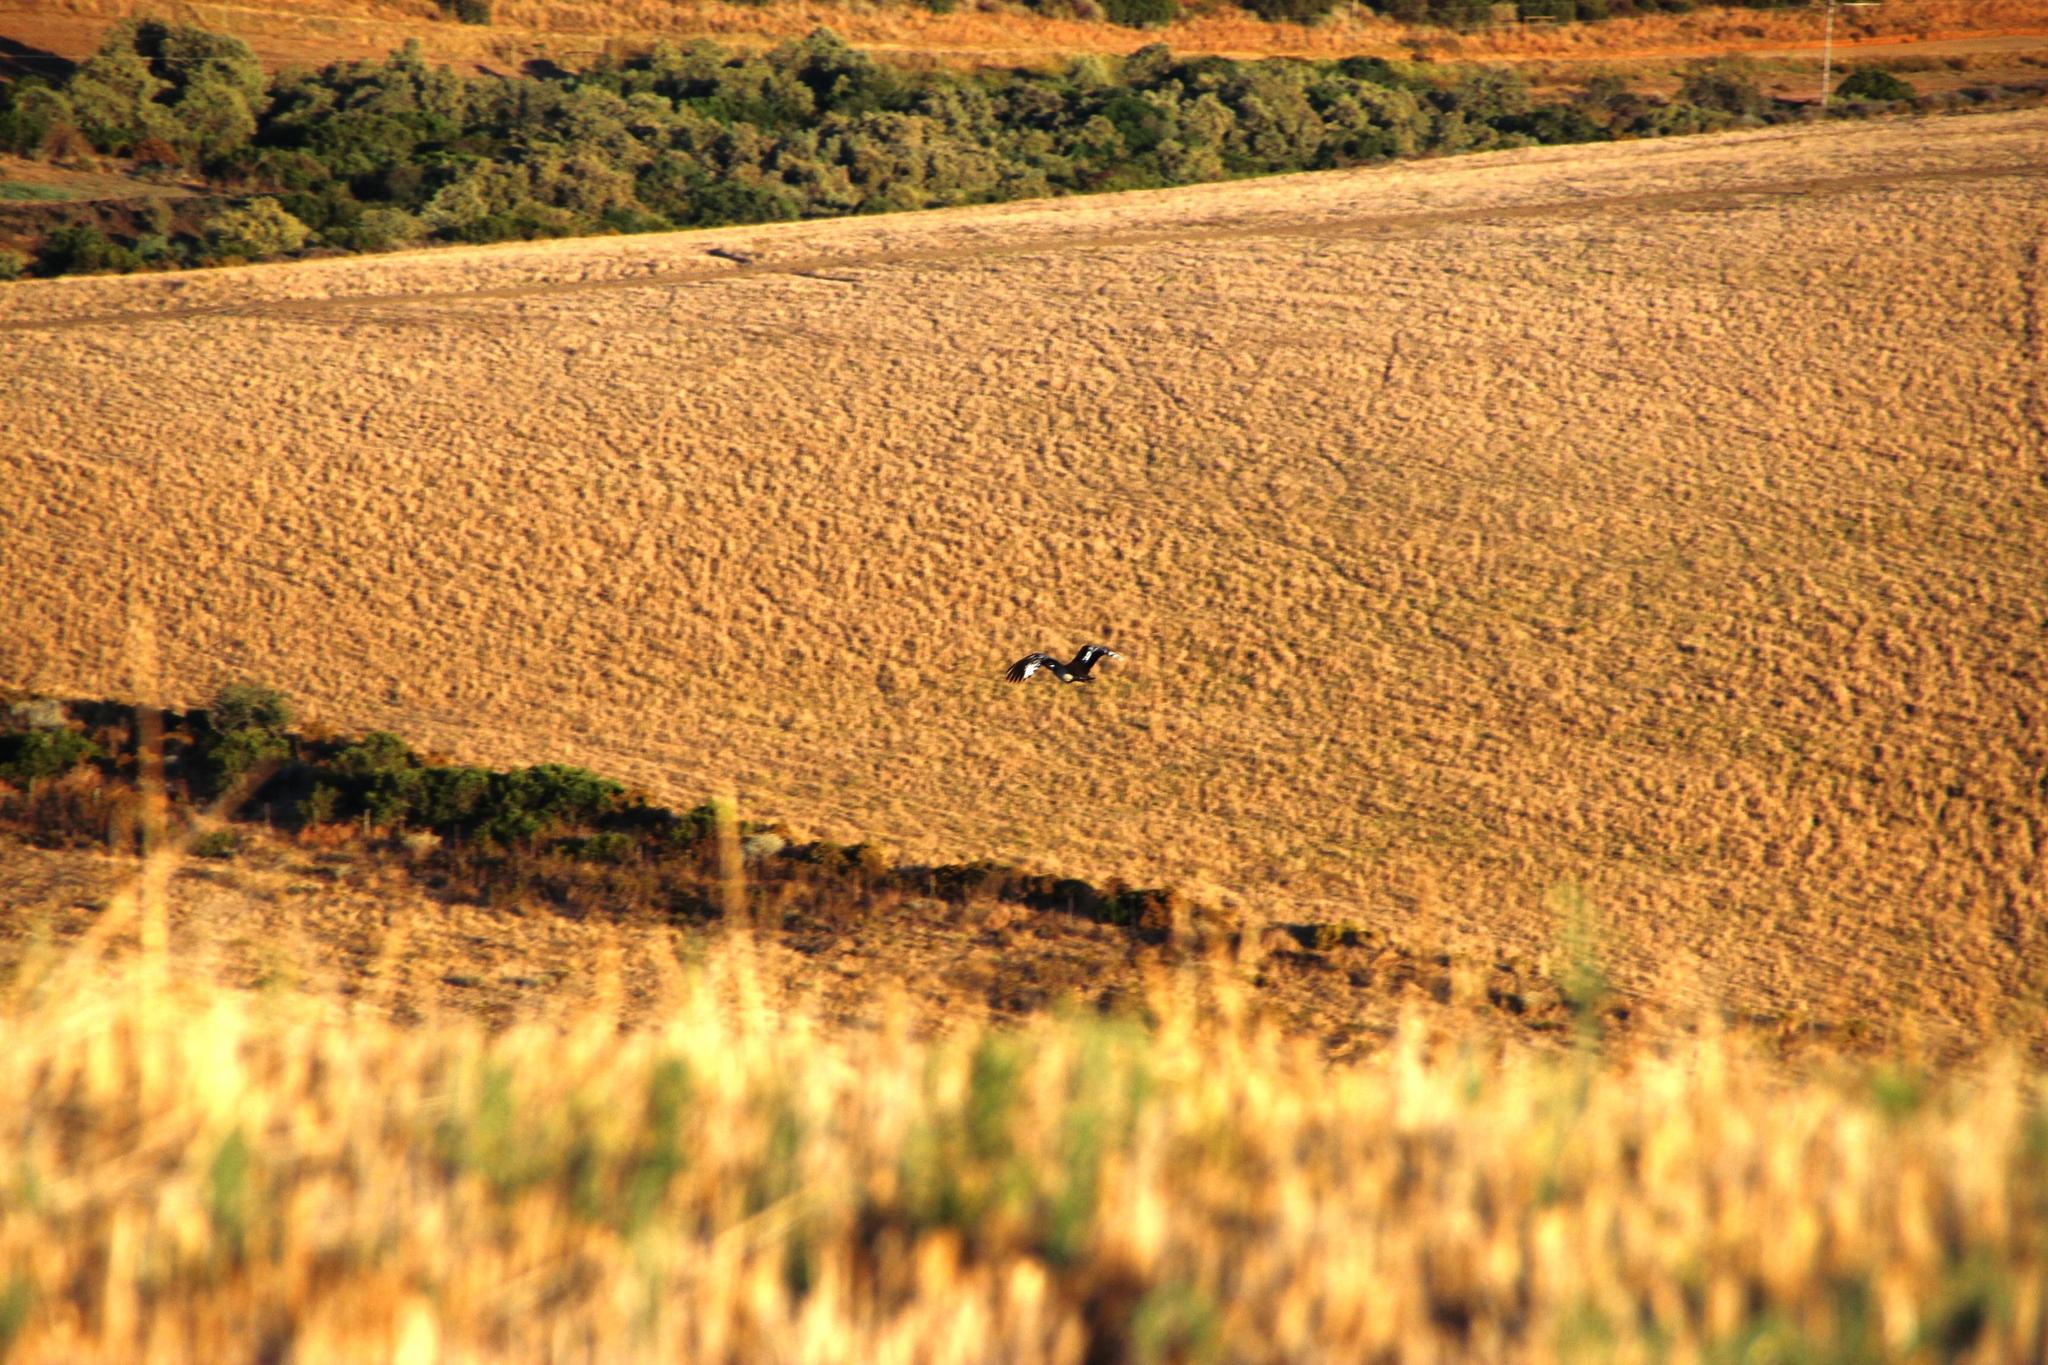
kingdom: Animalia
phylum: Chordata
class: Aves
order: Otidiformes
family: Otididae
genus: Neotis
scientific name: Neotis denhami
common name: Denham's bustard
